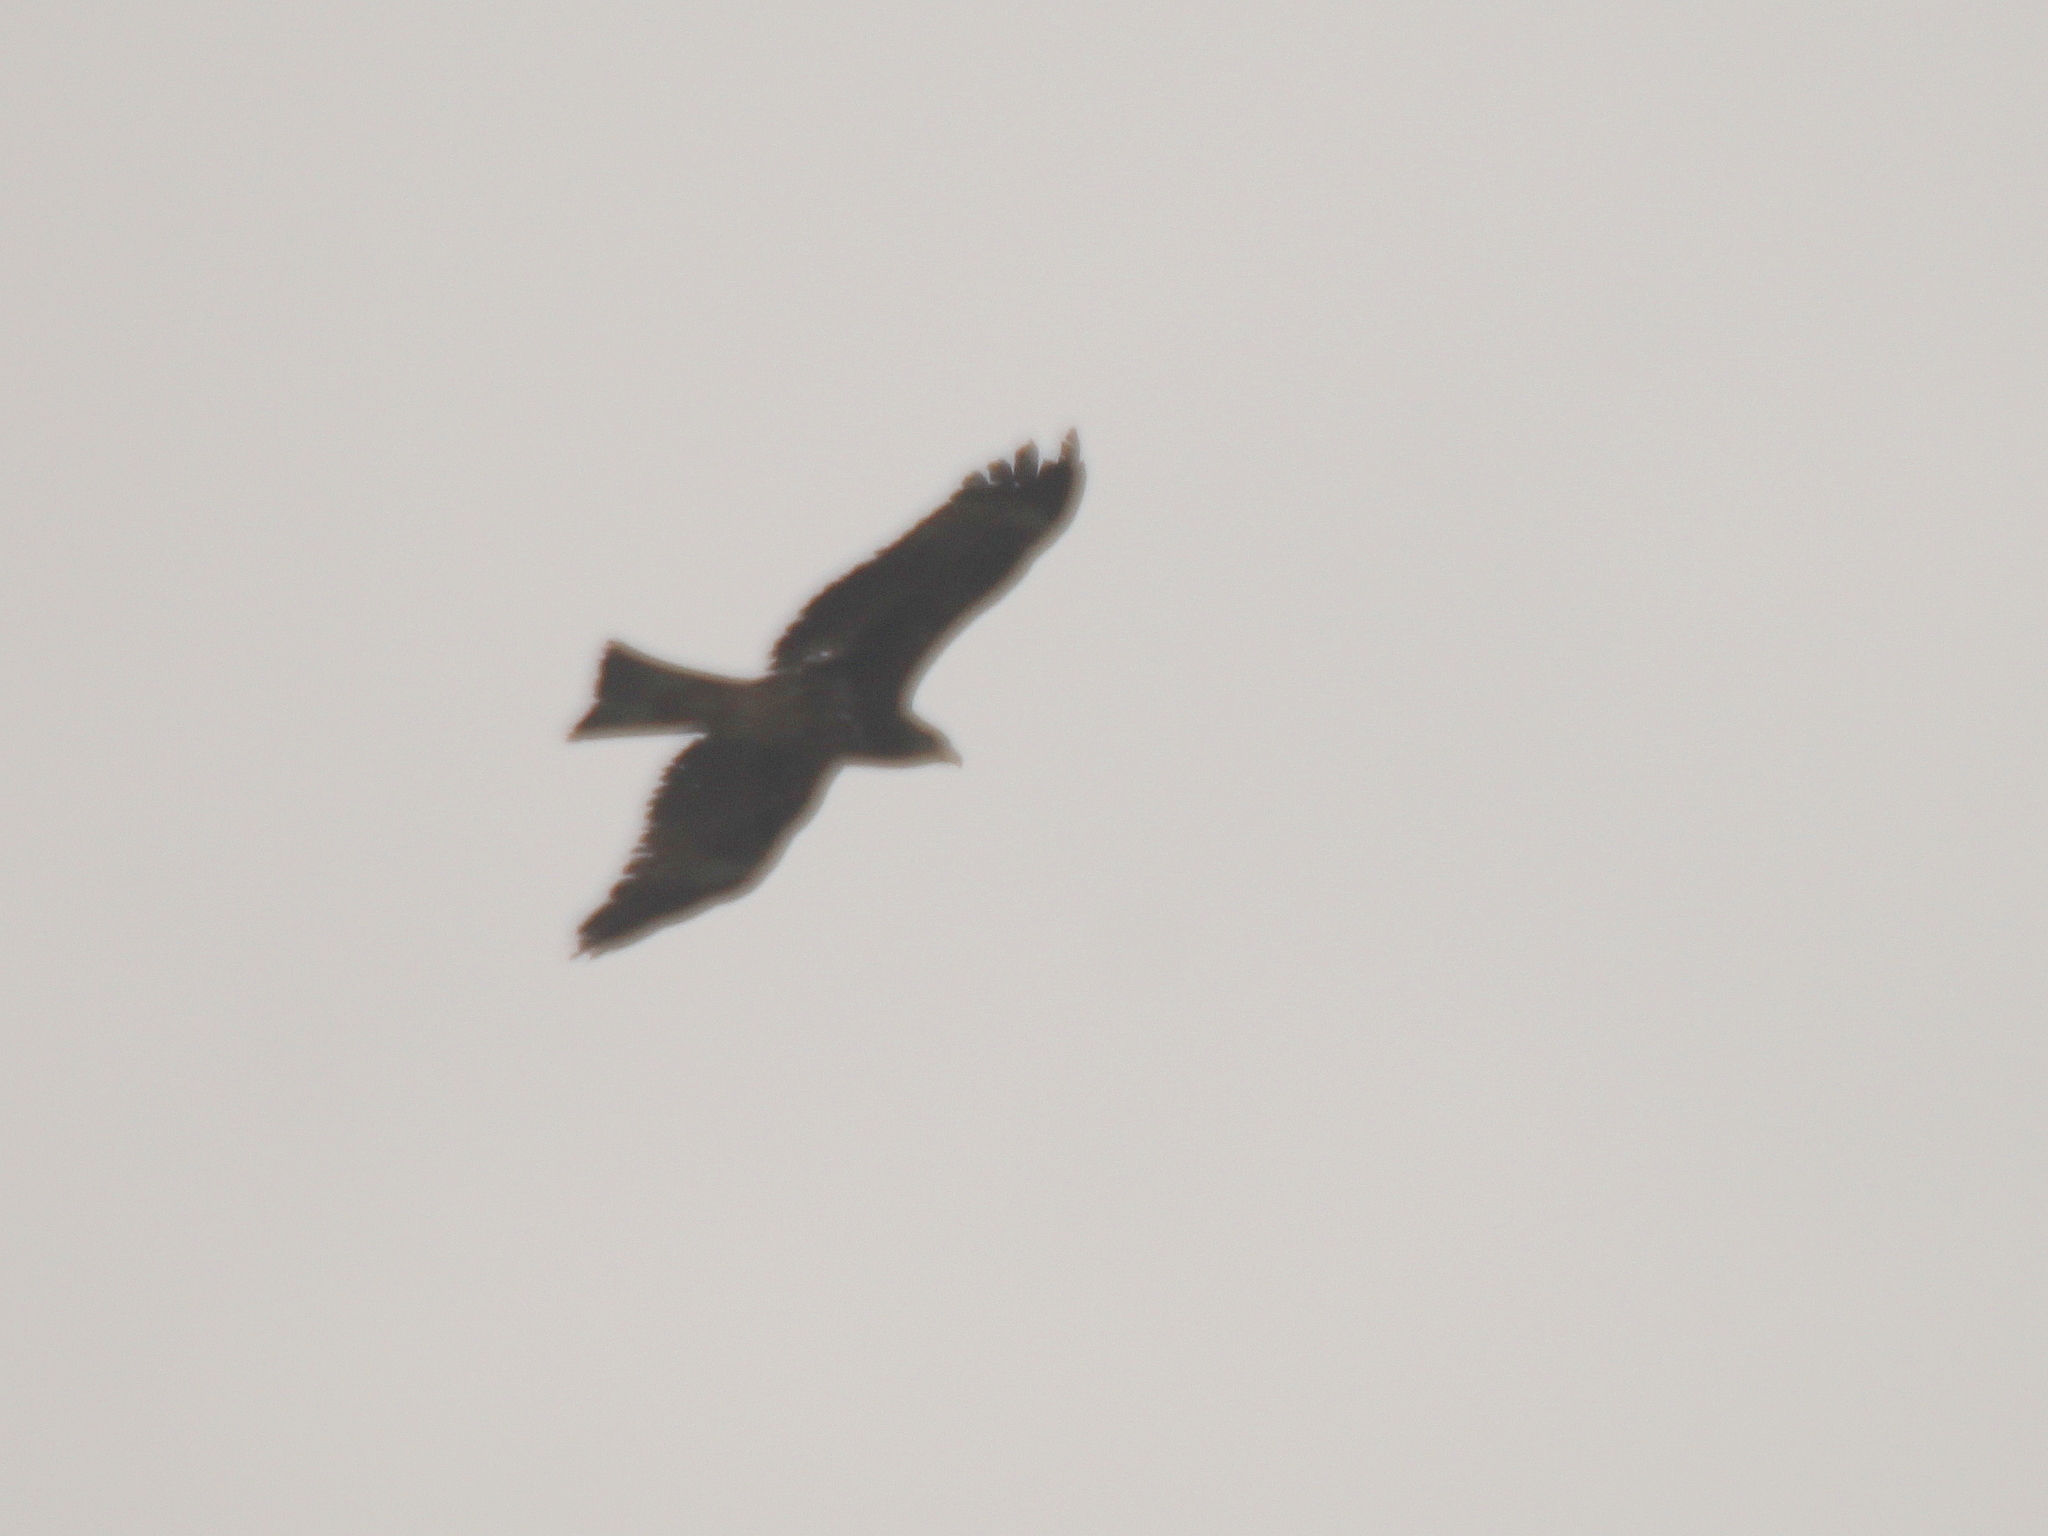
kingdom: Animalia
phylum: Chordata
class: Aves
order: Accipitriformes
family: Accipitridae
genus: Milvus
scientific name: Milvus migrans
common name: Black kite
